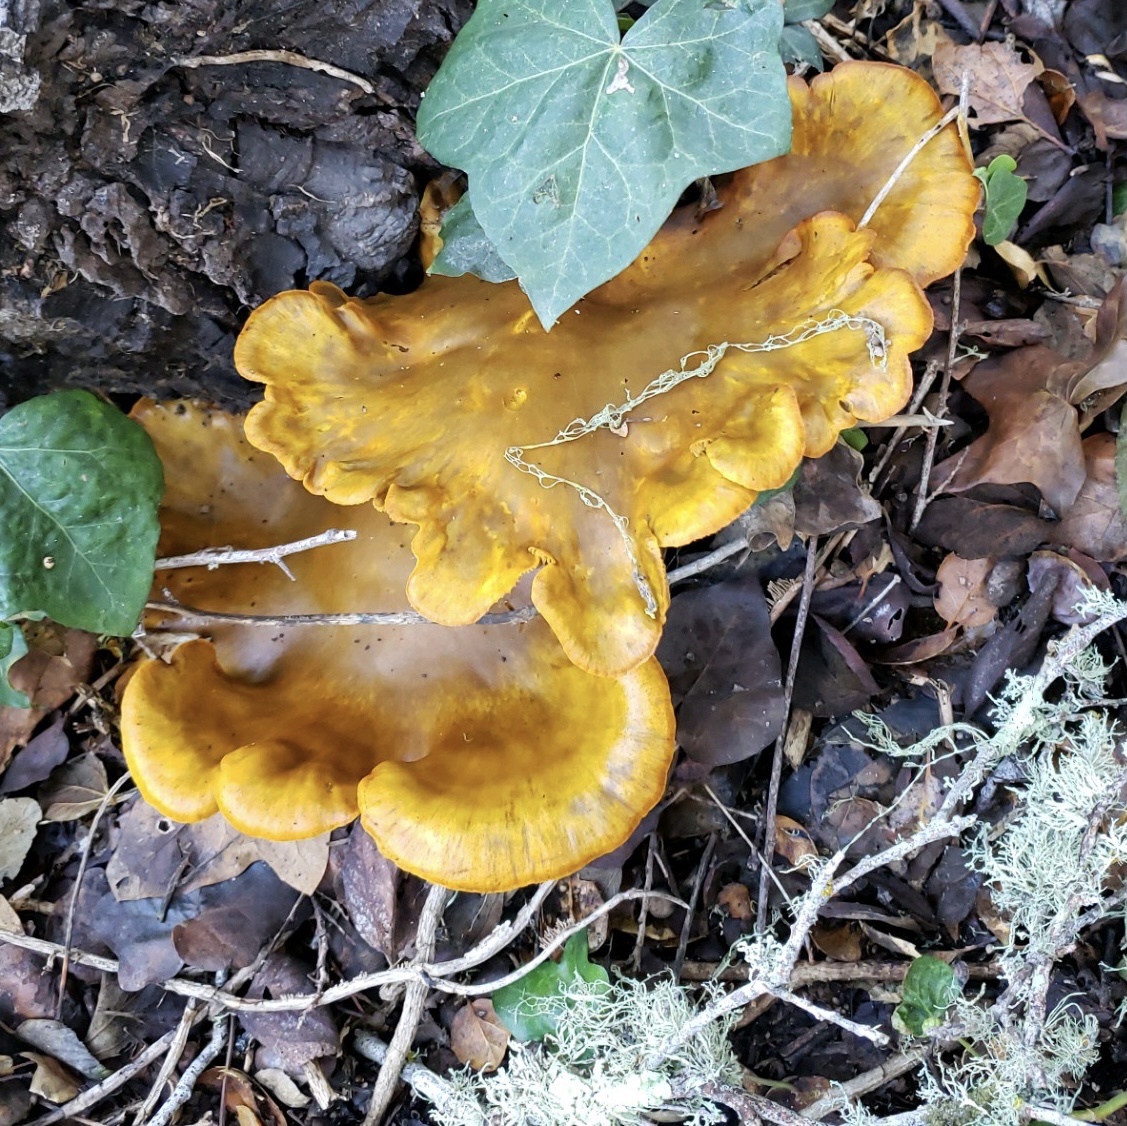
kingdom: Fungi
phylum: Basidiomycota
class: Agaricomycetes
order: Agaricales
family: Omphalotaceae
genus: Omphalotus
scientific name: Omphalotus olivascens
